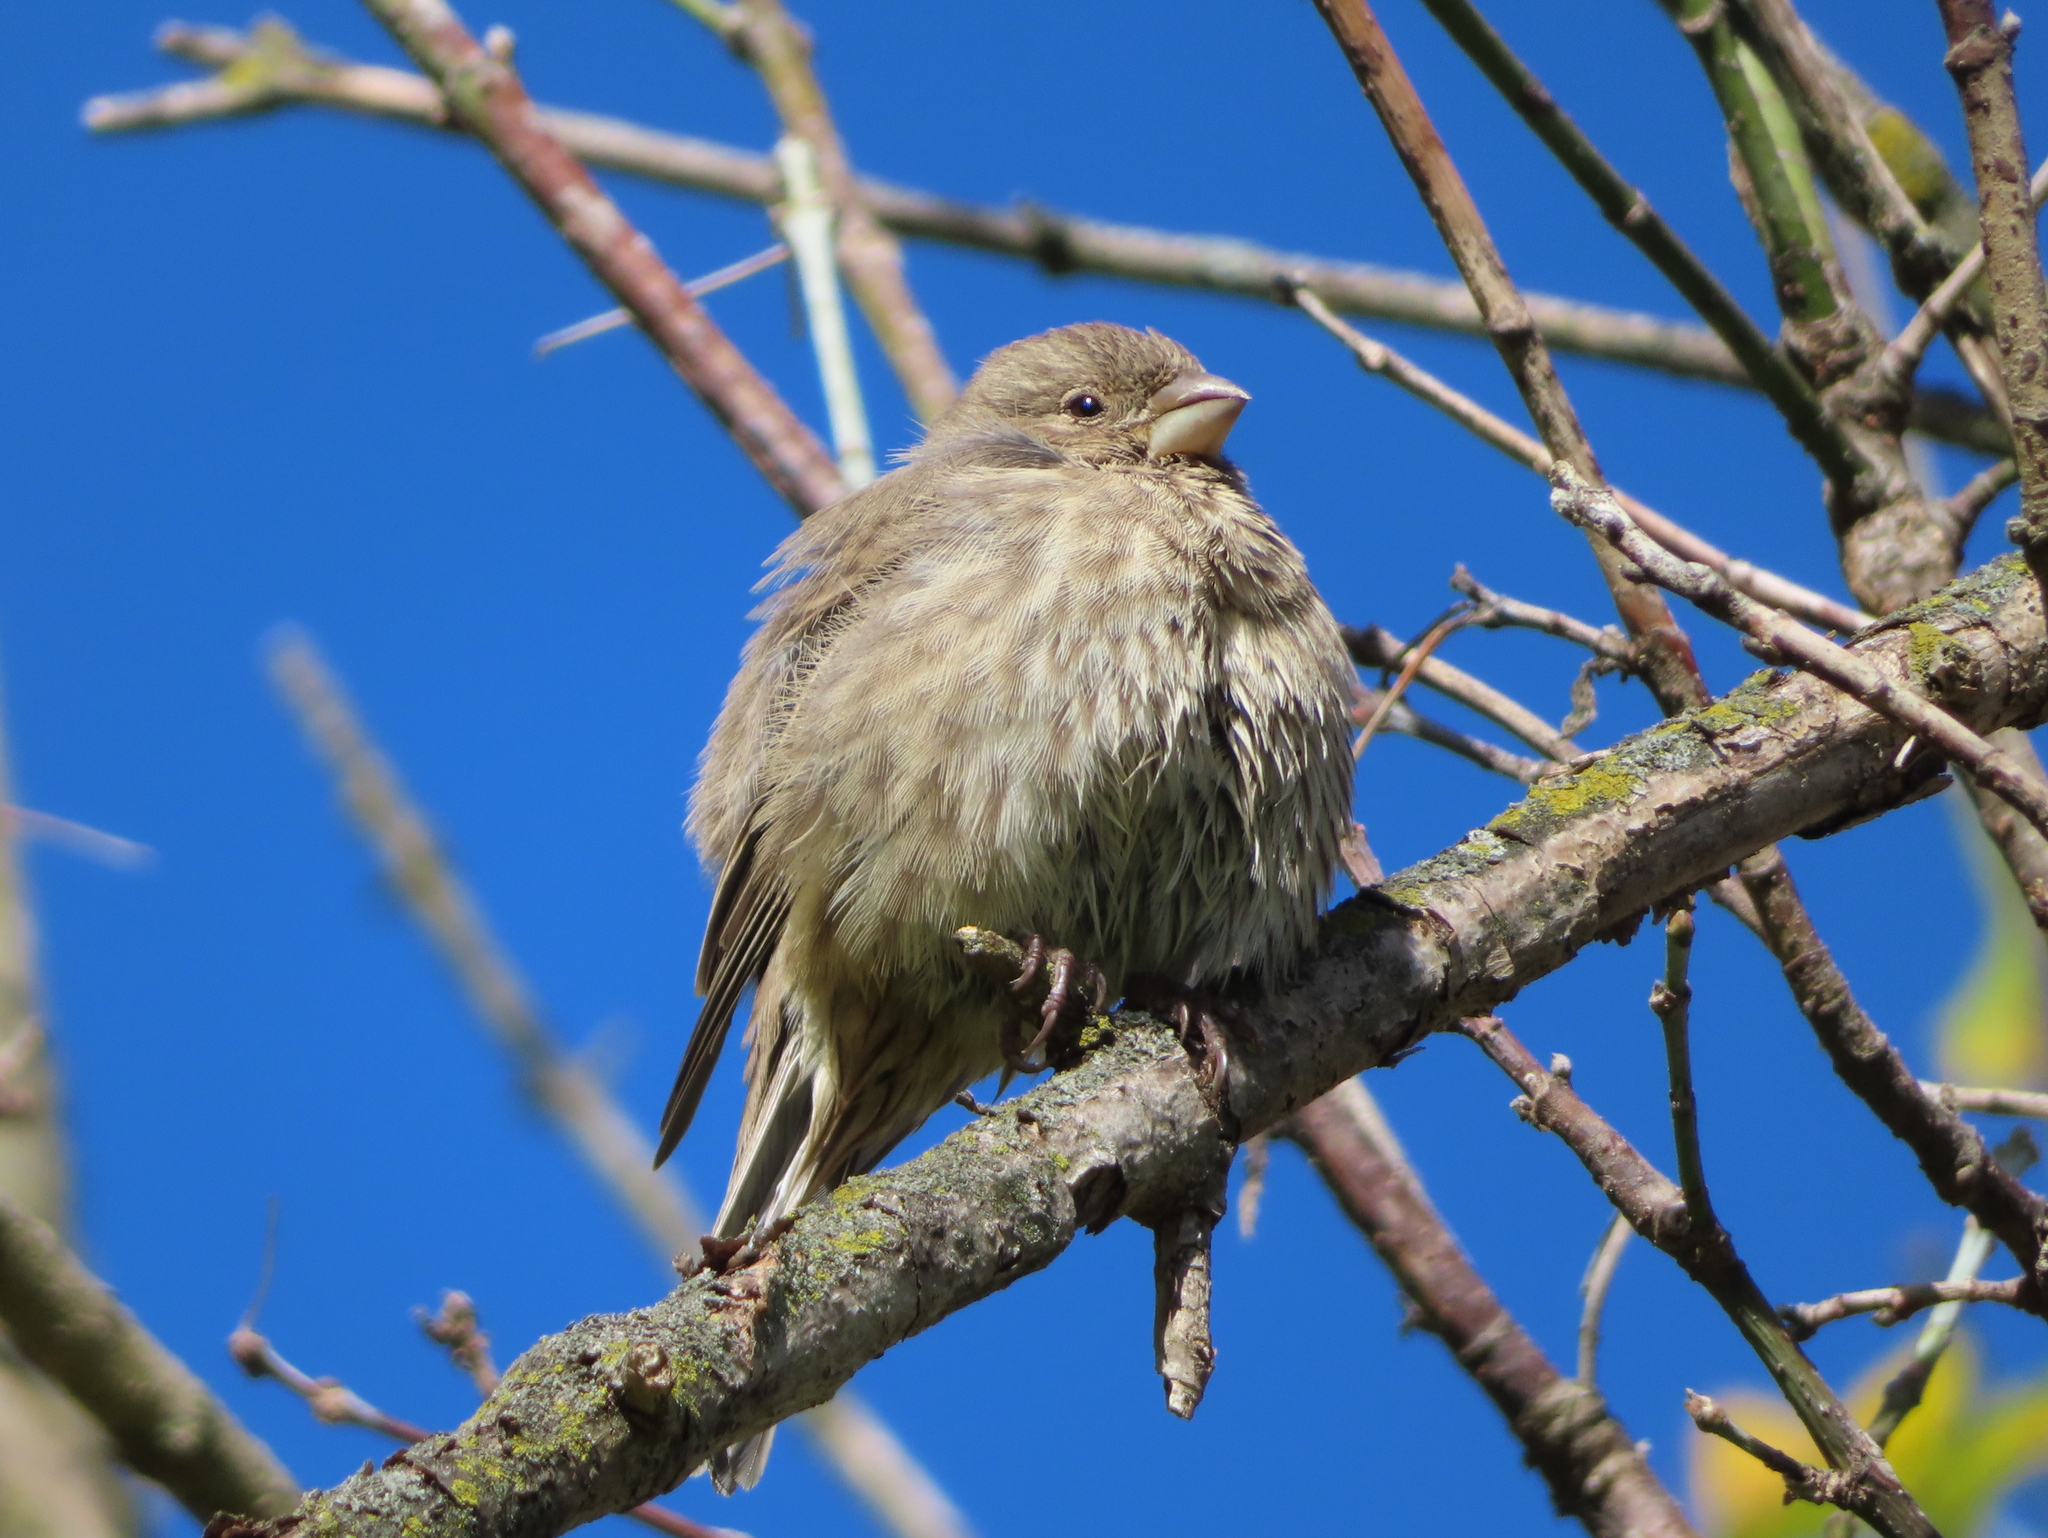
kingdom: Animalia
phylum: Chordata
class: Aves
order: Passeriformes
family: Fringillidae
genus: Haemorhous
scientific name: Haemorhous mexicanus
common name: House finch
